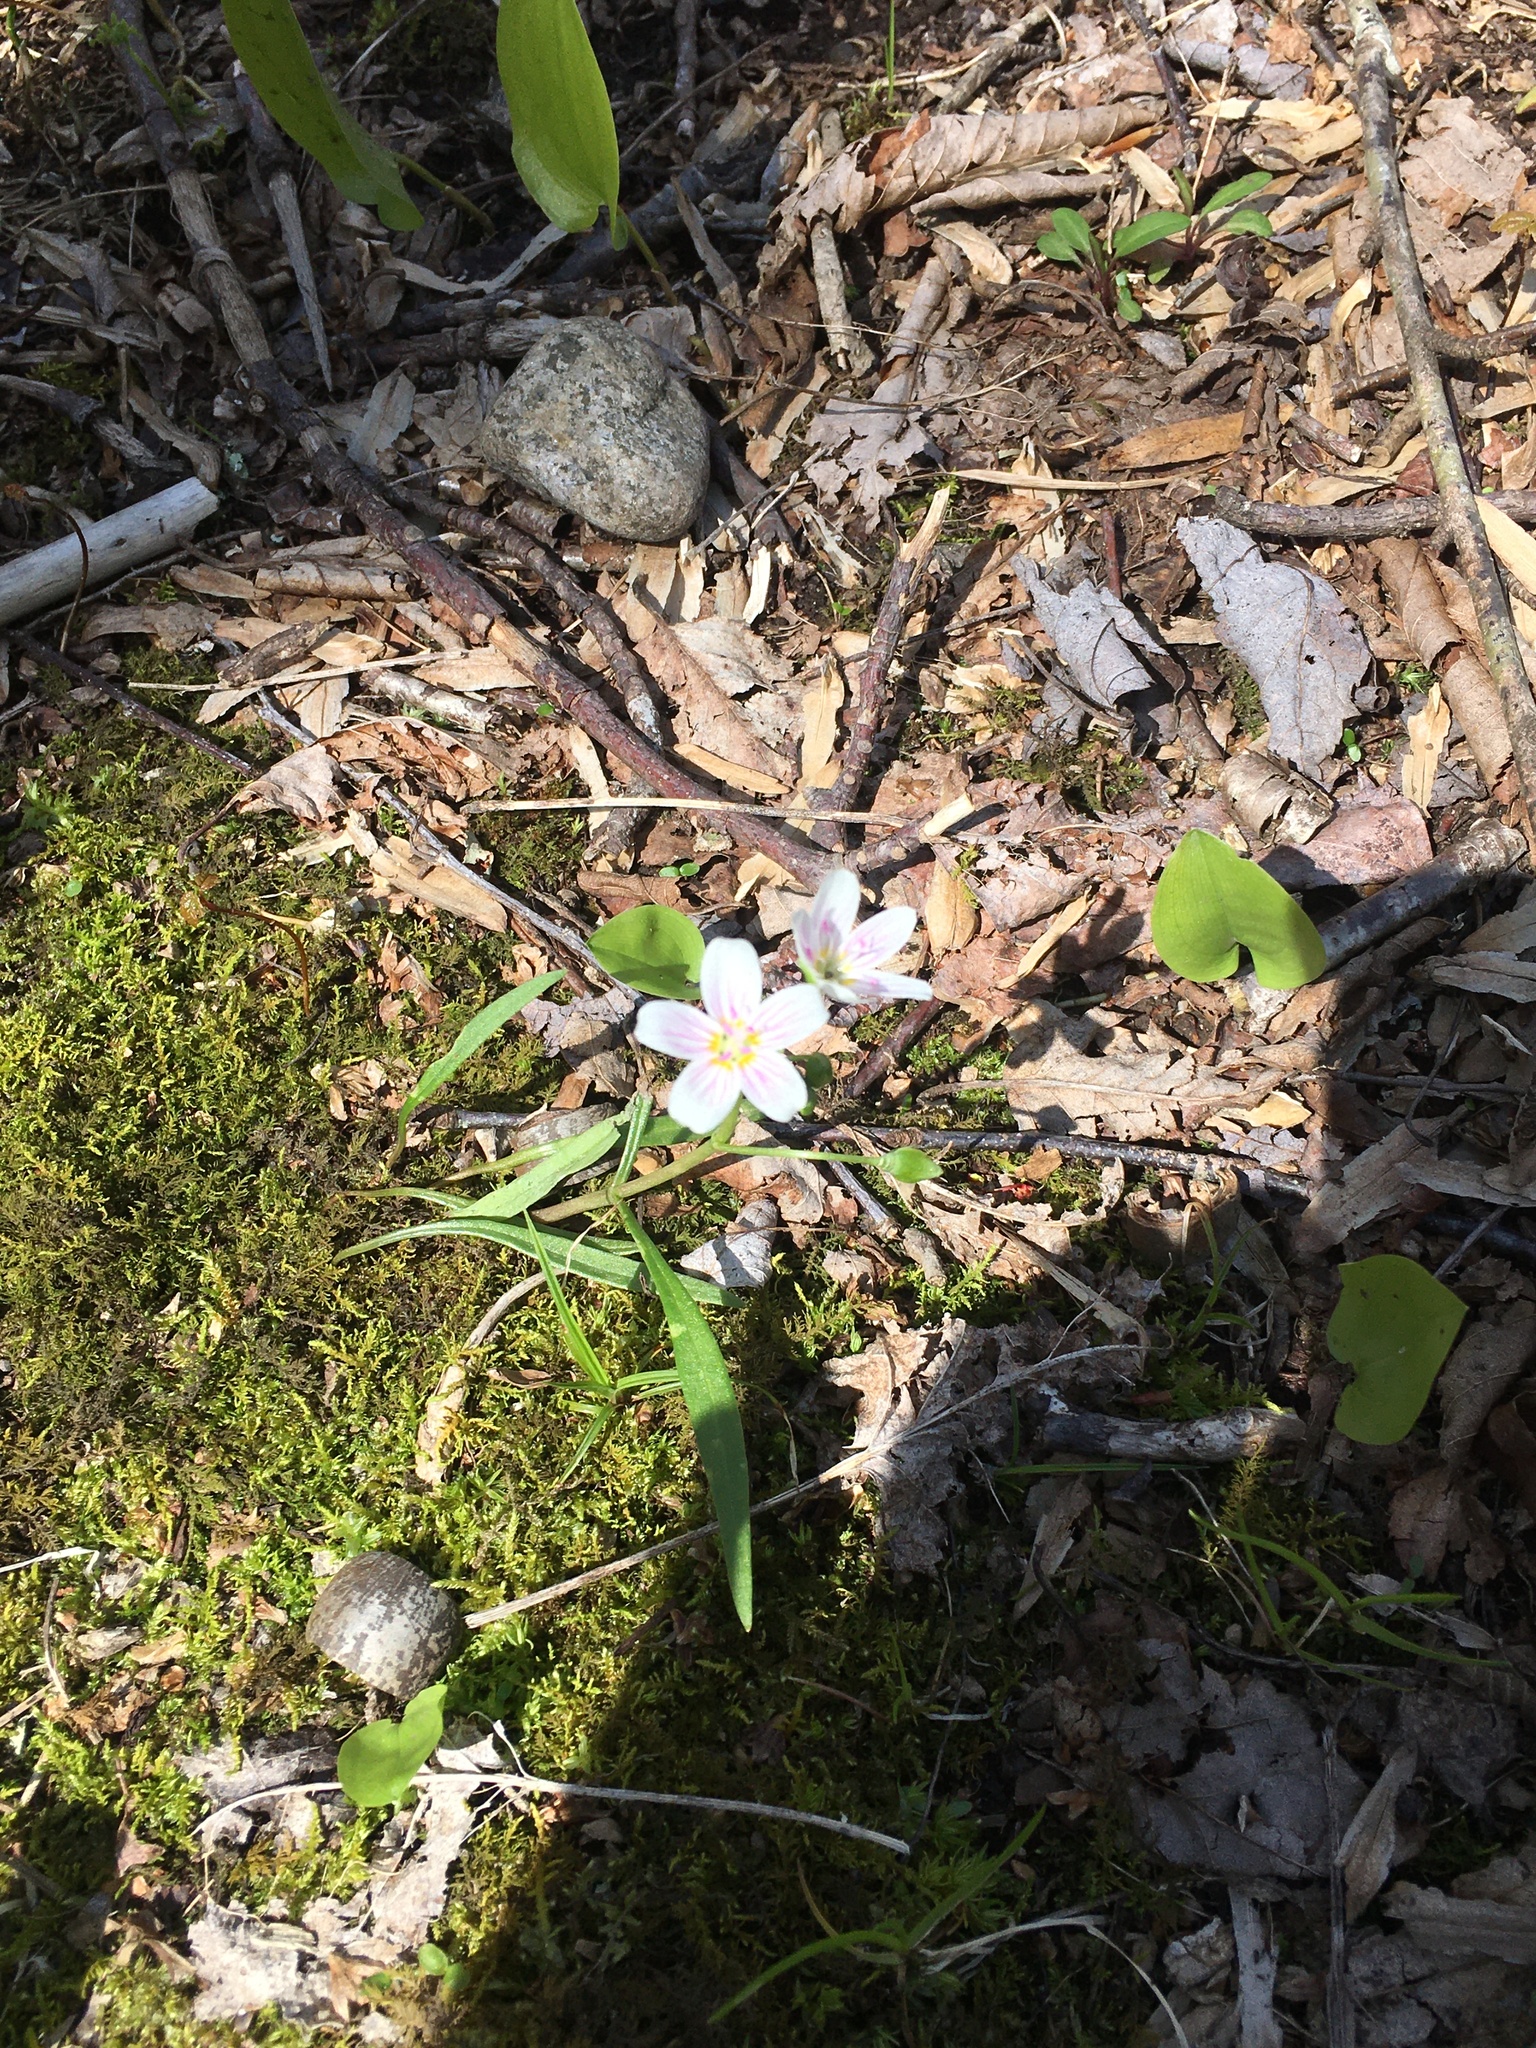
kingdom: Plantae
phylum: Tracheophyta
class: Magnoliopsida
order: Caryophyllales
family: Montiaceae
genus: Claytonia
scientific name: Claytonia virginica
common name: Virginia springbeauty
